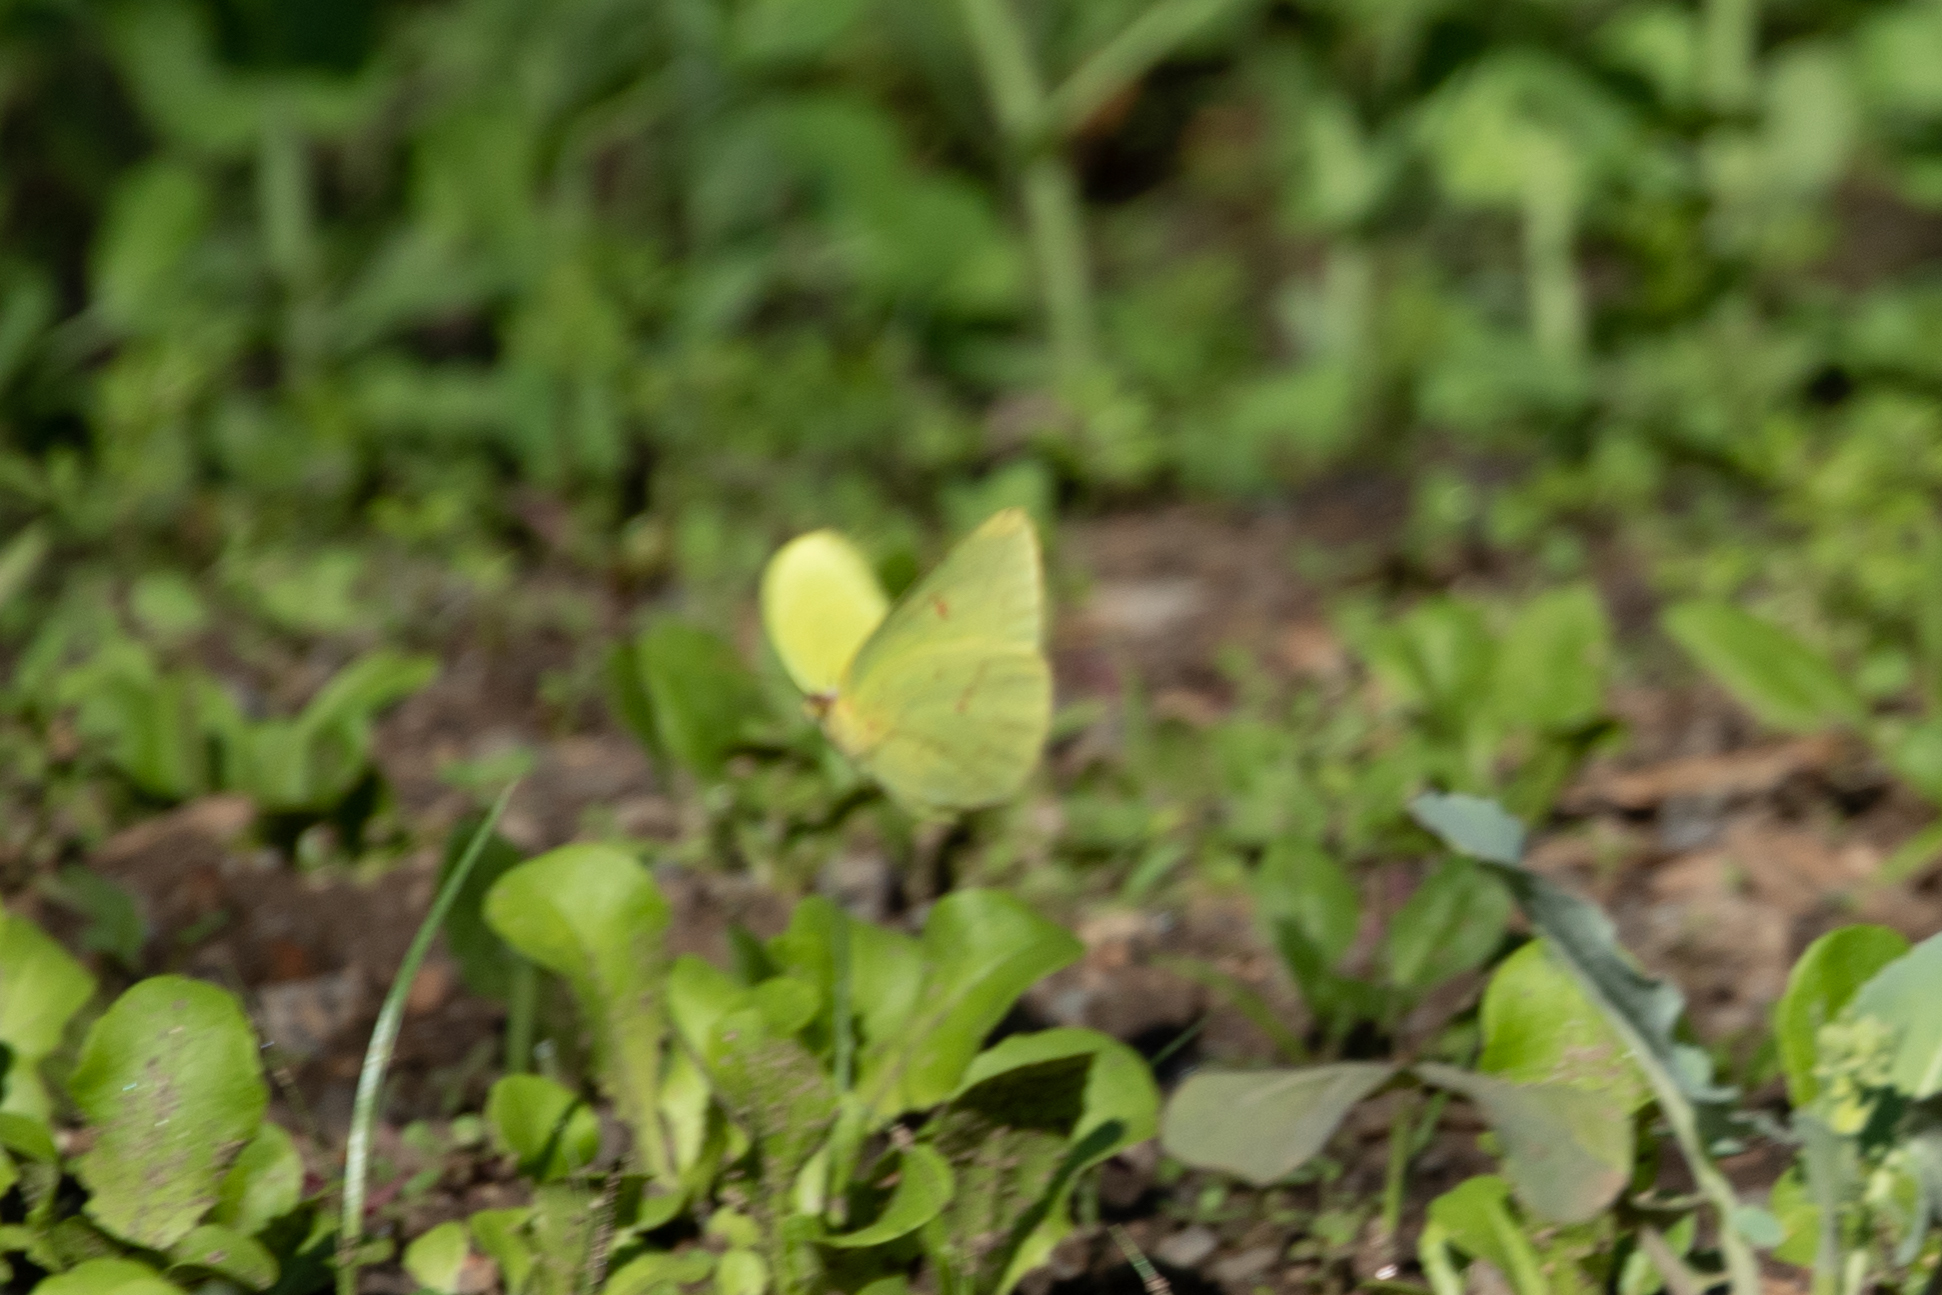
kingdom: Animalia
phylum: Arthropoda
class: Insecta
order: Lepidoptera
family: Pieridae
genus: Phoebis
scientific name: Phoebis sennae
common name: Cloudless sulphur
